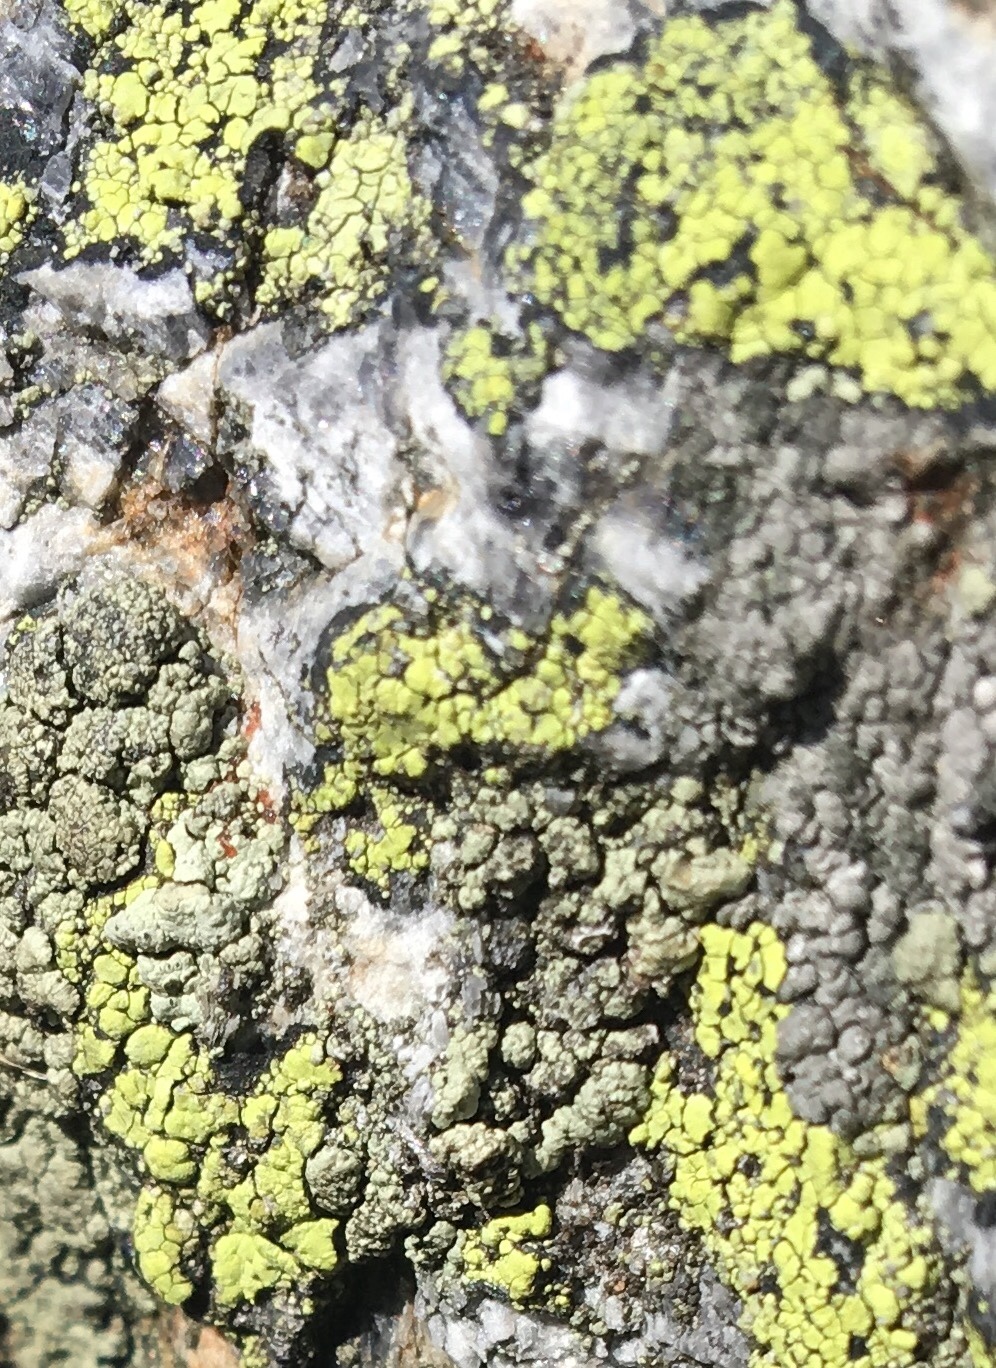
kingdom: Fungi
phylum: Ascomycota
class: Lecanoromycetes
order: Rhizocarpales
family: Rhizocarpaceae
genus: Rhizocarpon
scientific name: Rhizocarpon geographicum
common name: Yellow map lichen
